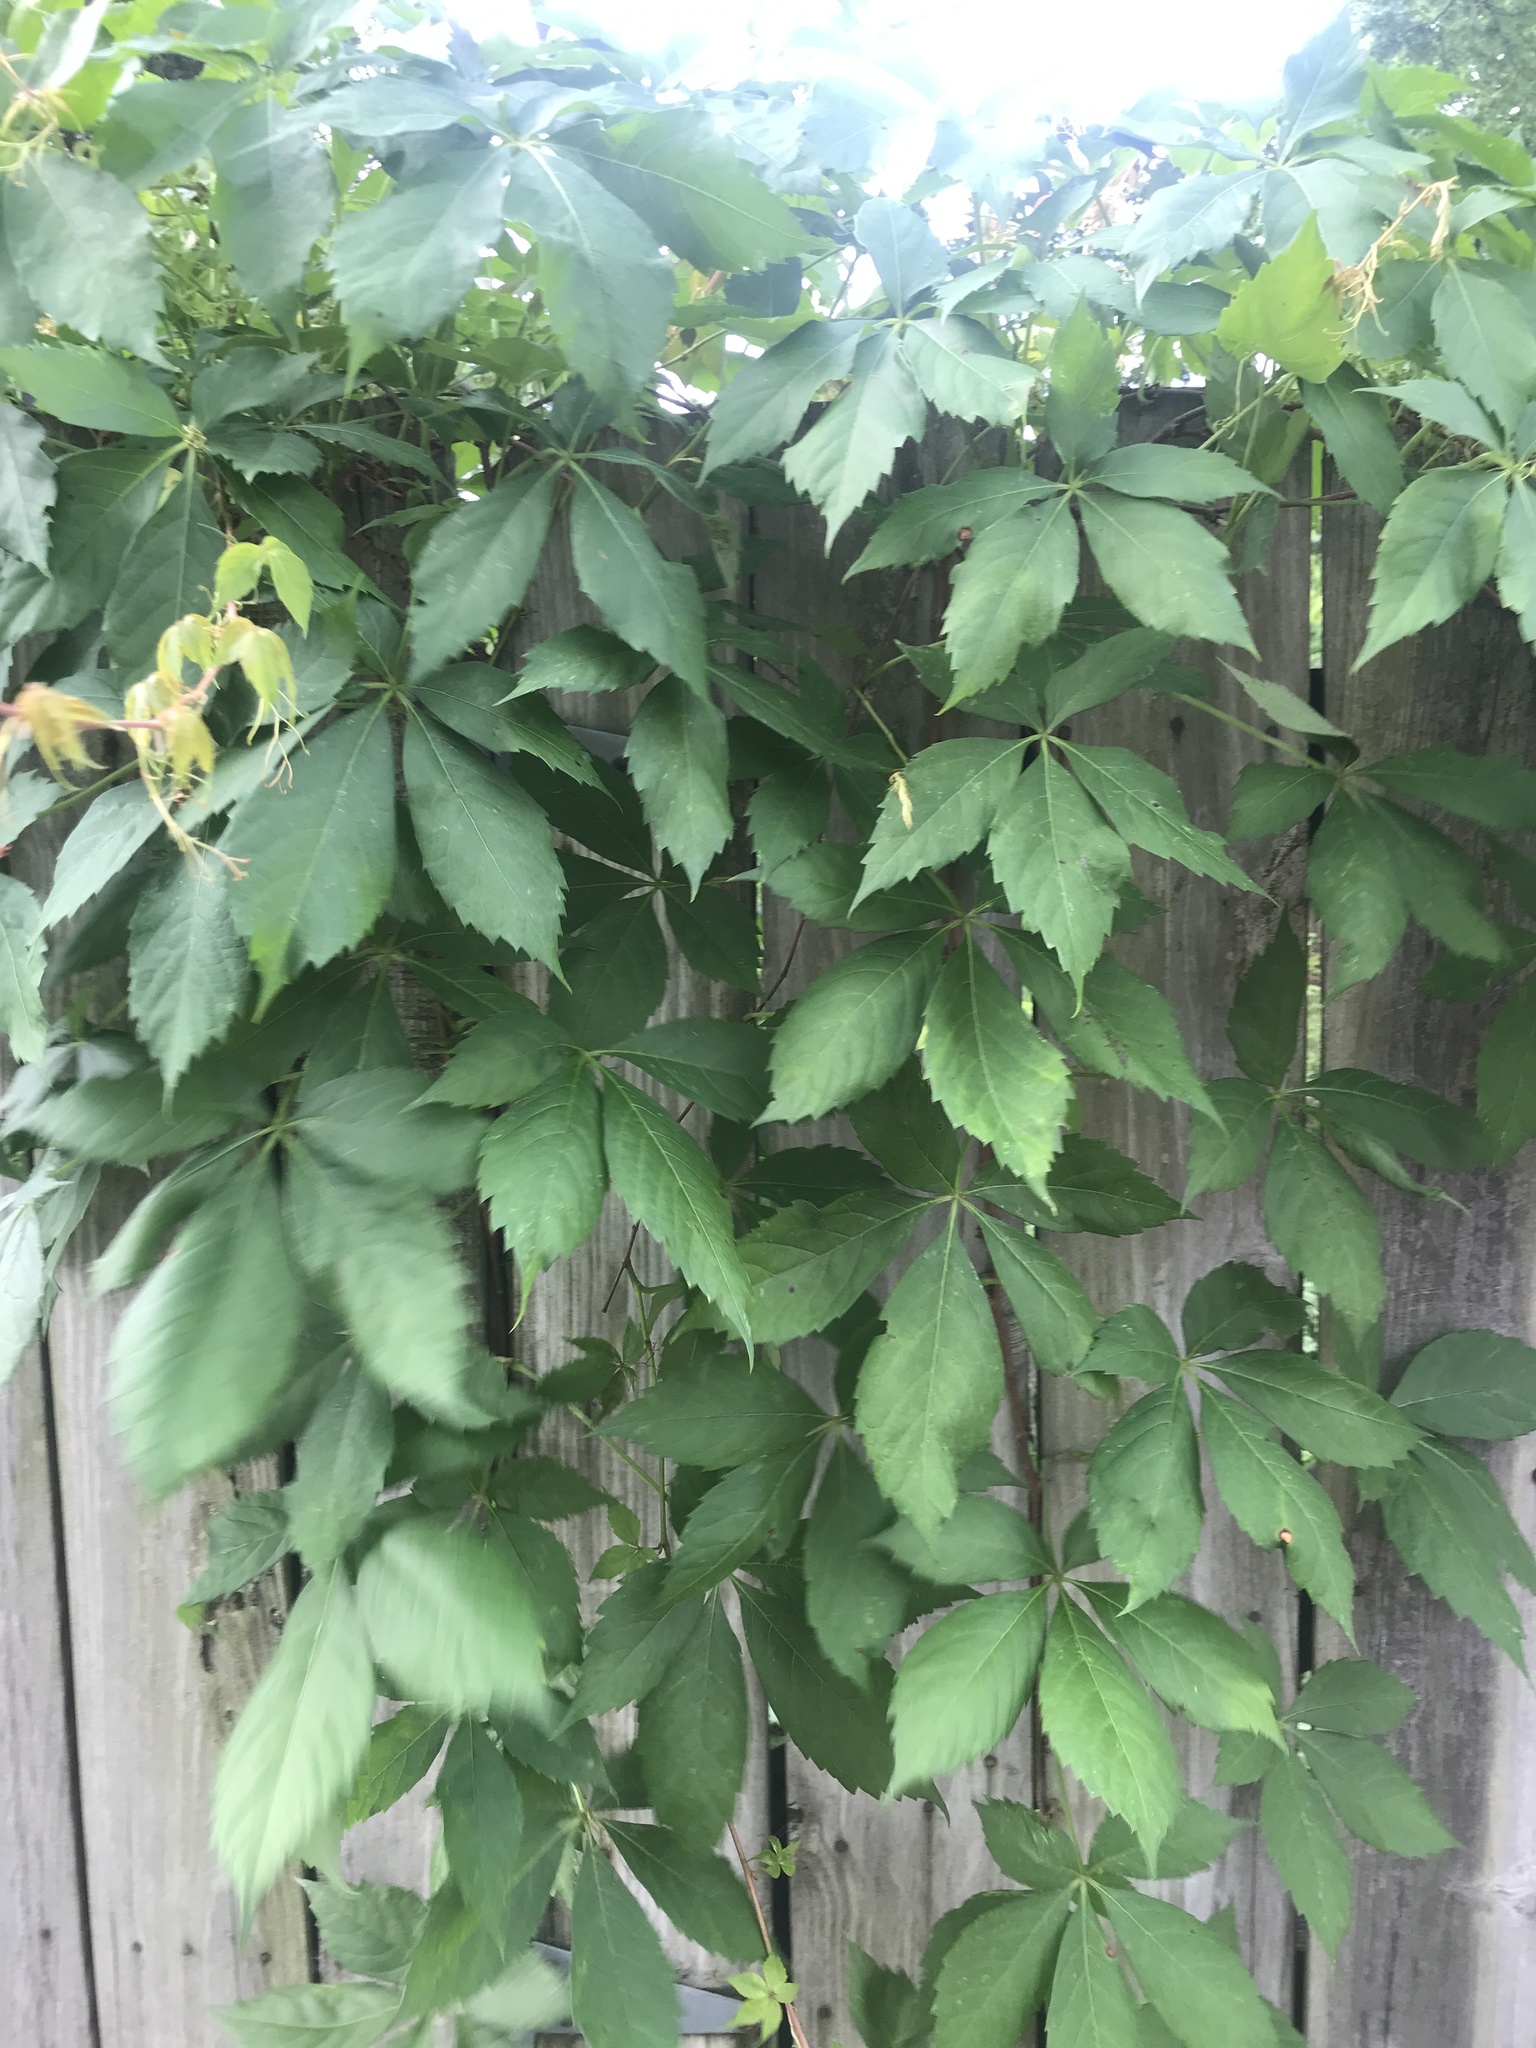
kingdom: Plantae
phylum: Tracheophyta
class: Magnoliopsida
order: Vitales
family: Vitaceae
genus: Parthenocissus
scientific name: Parthenocissus quinquefolia
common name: Virginia-creeper
